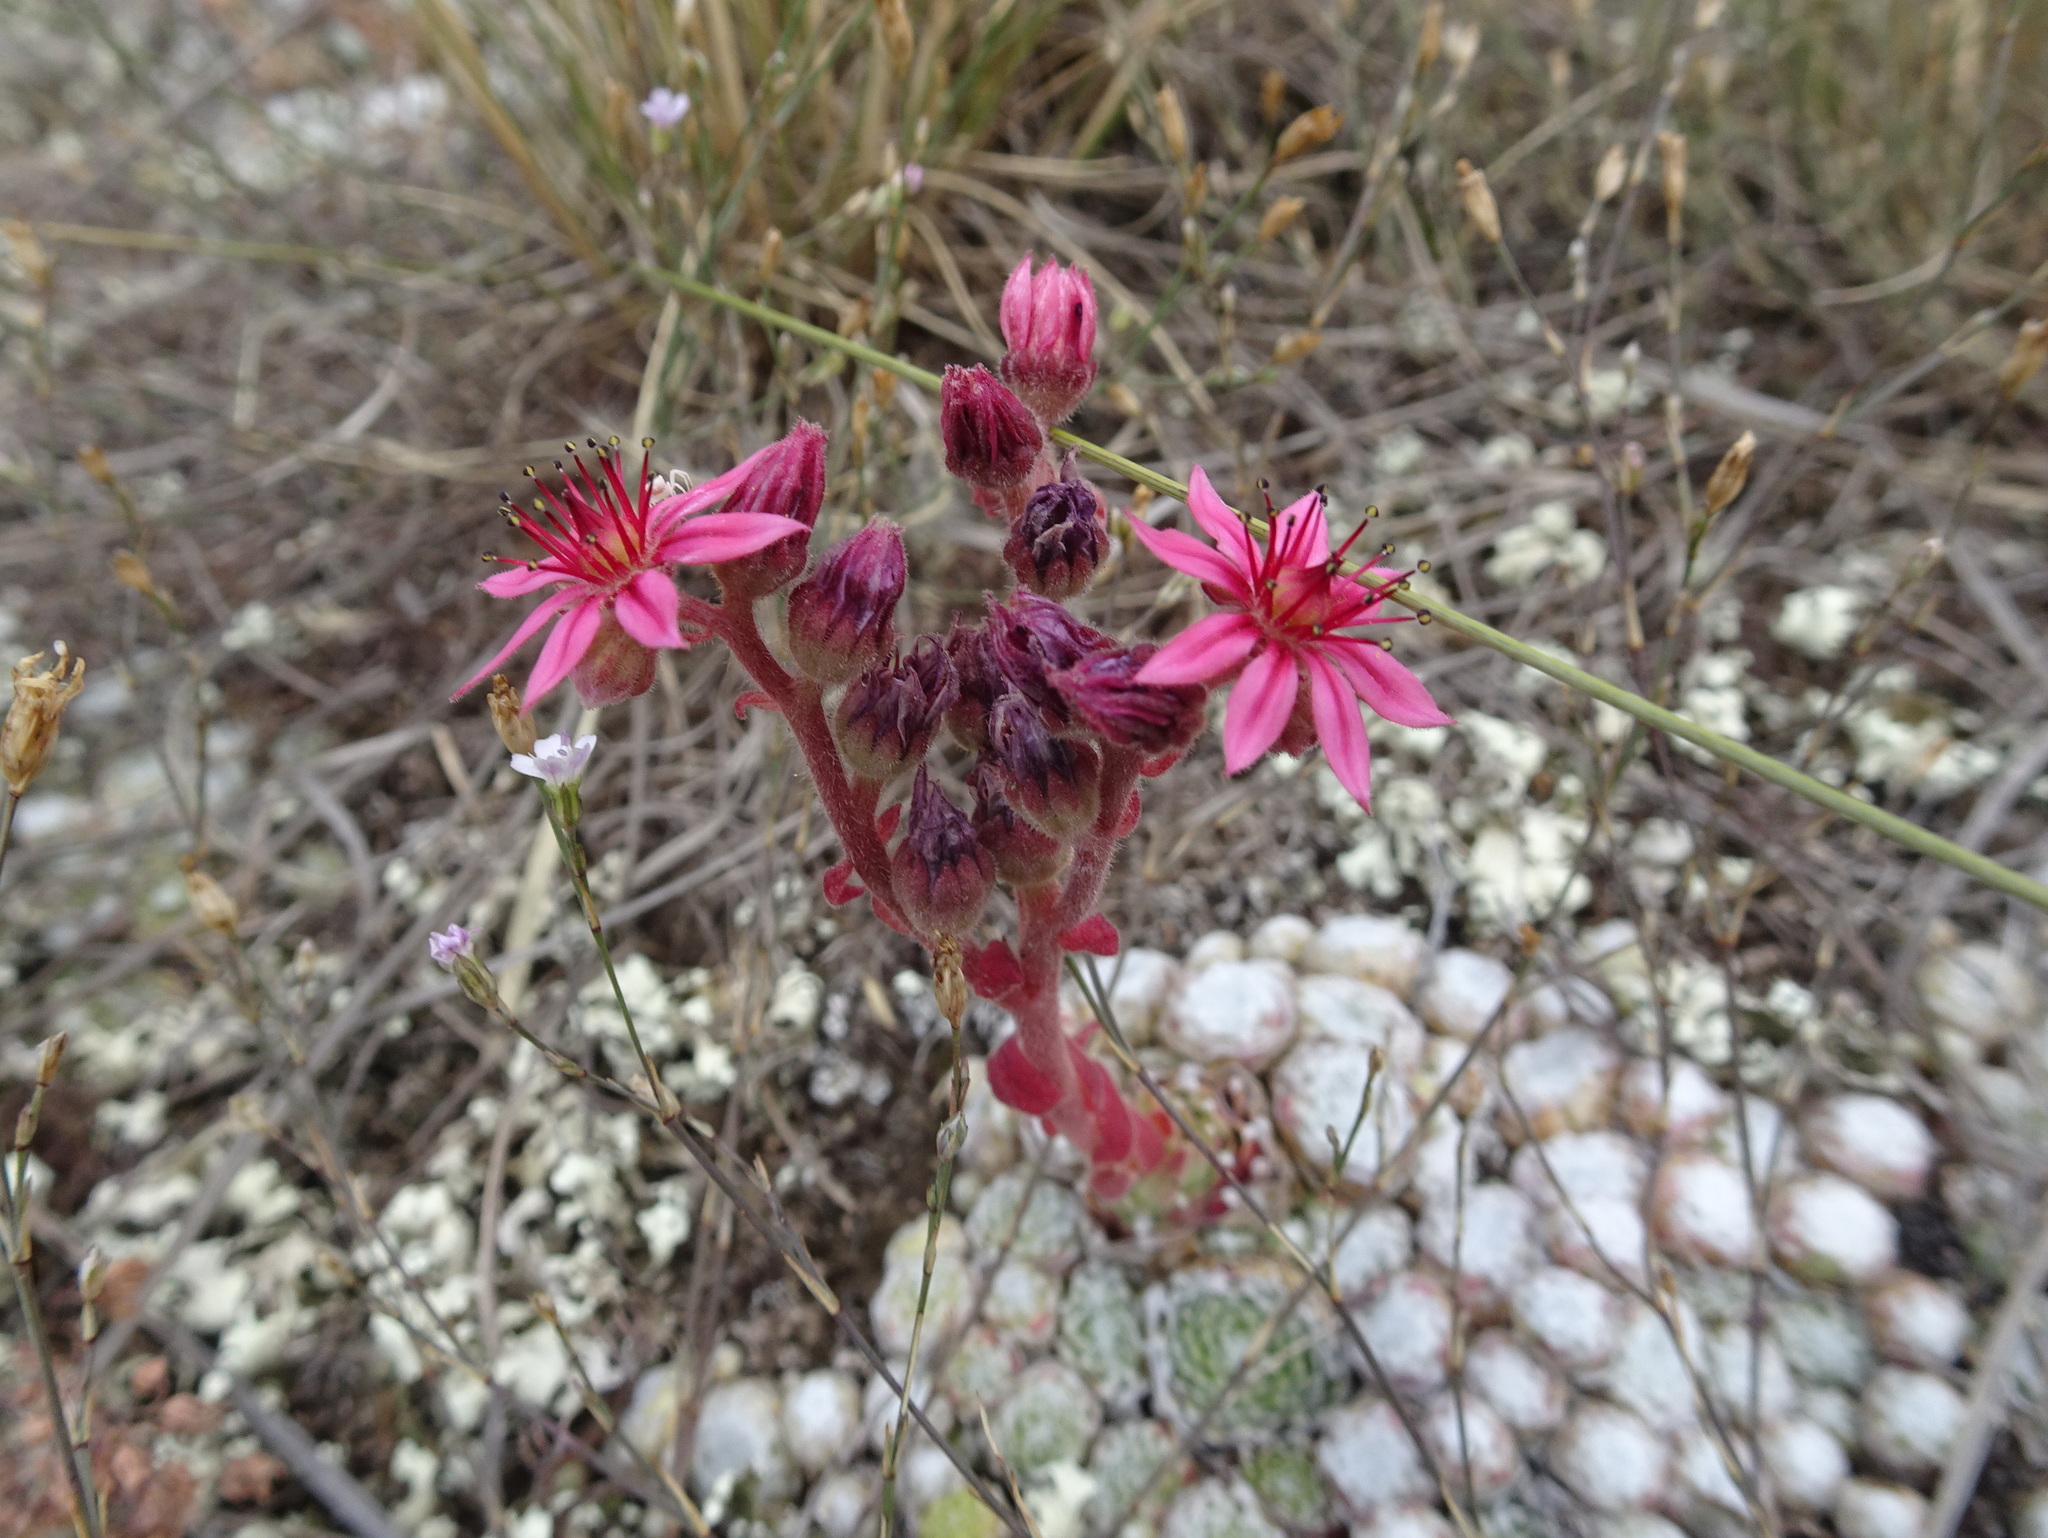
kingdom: Plantae
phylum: Tracheophyta
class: Magnoliopsida
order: Saxifragales
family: Crassulaceae
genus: Sempervivum
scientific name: Sempervivum arachnoideum
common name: Cobweb house-leek
